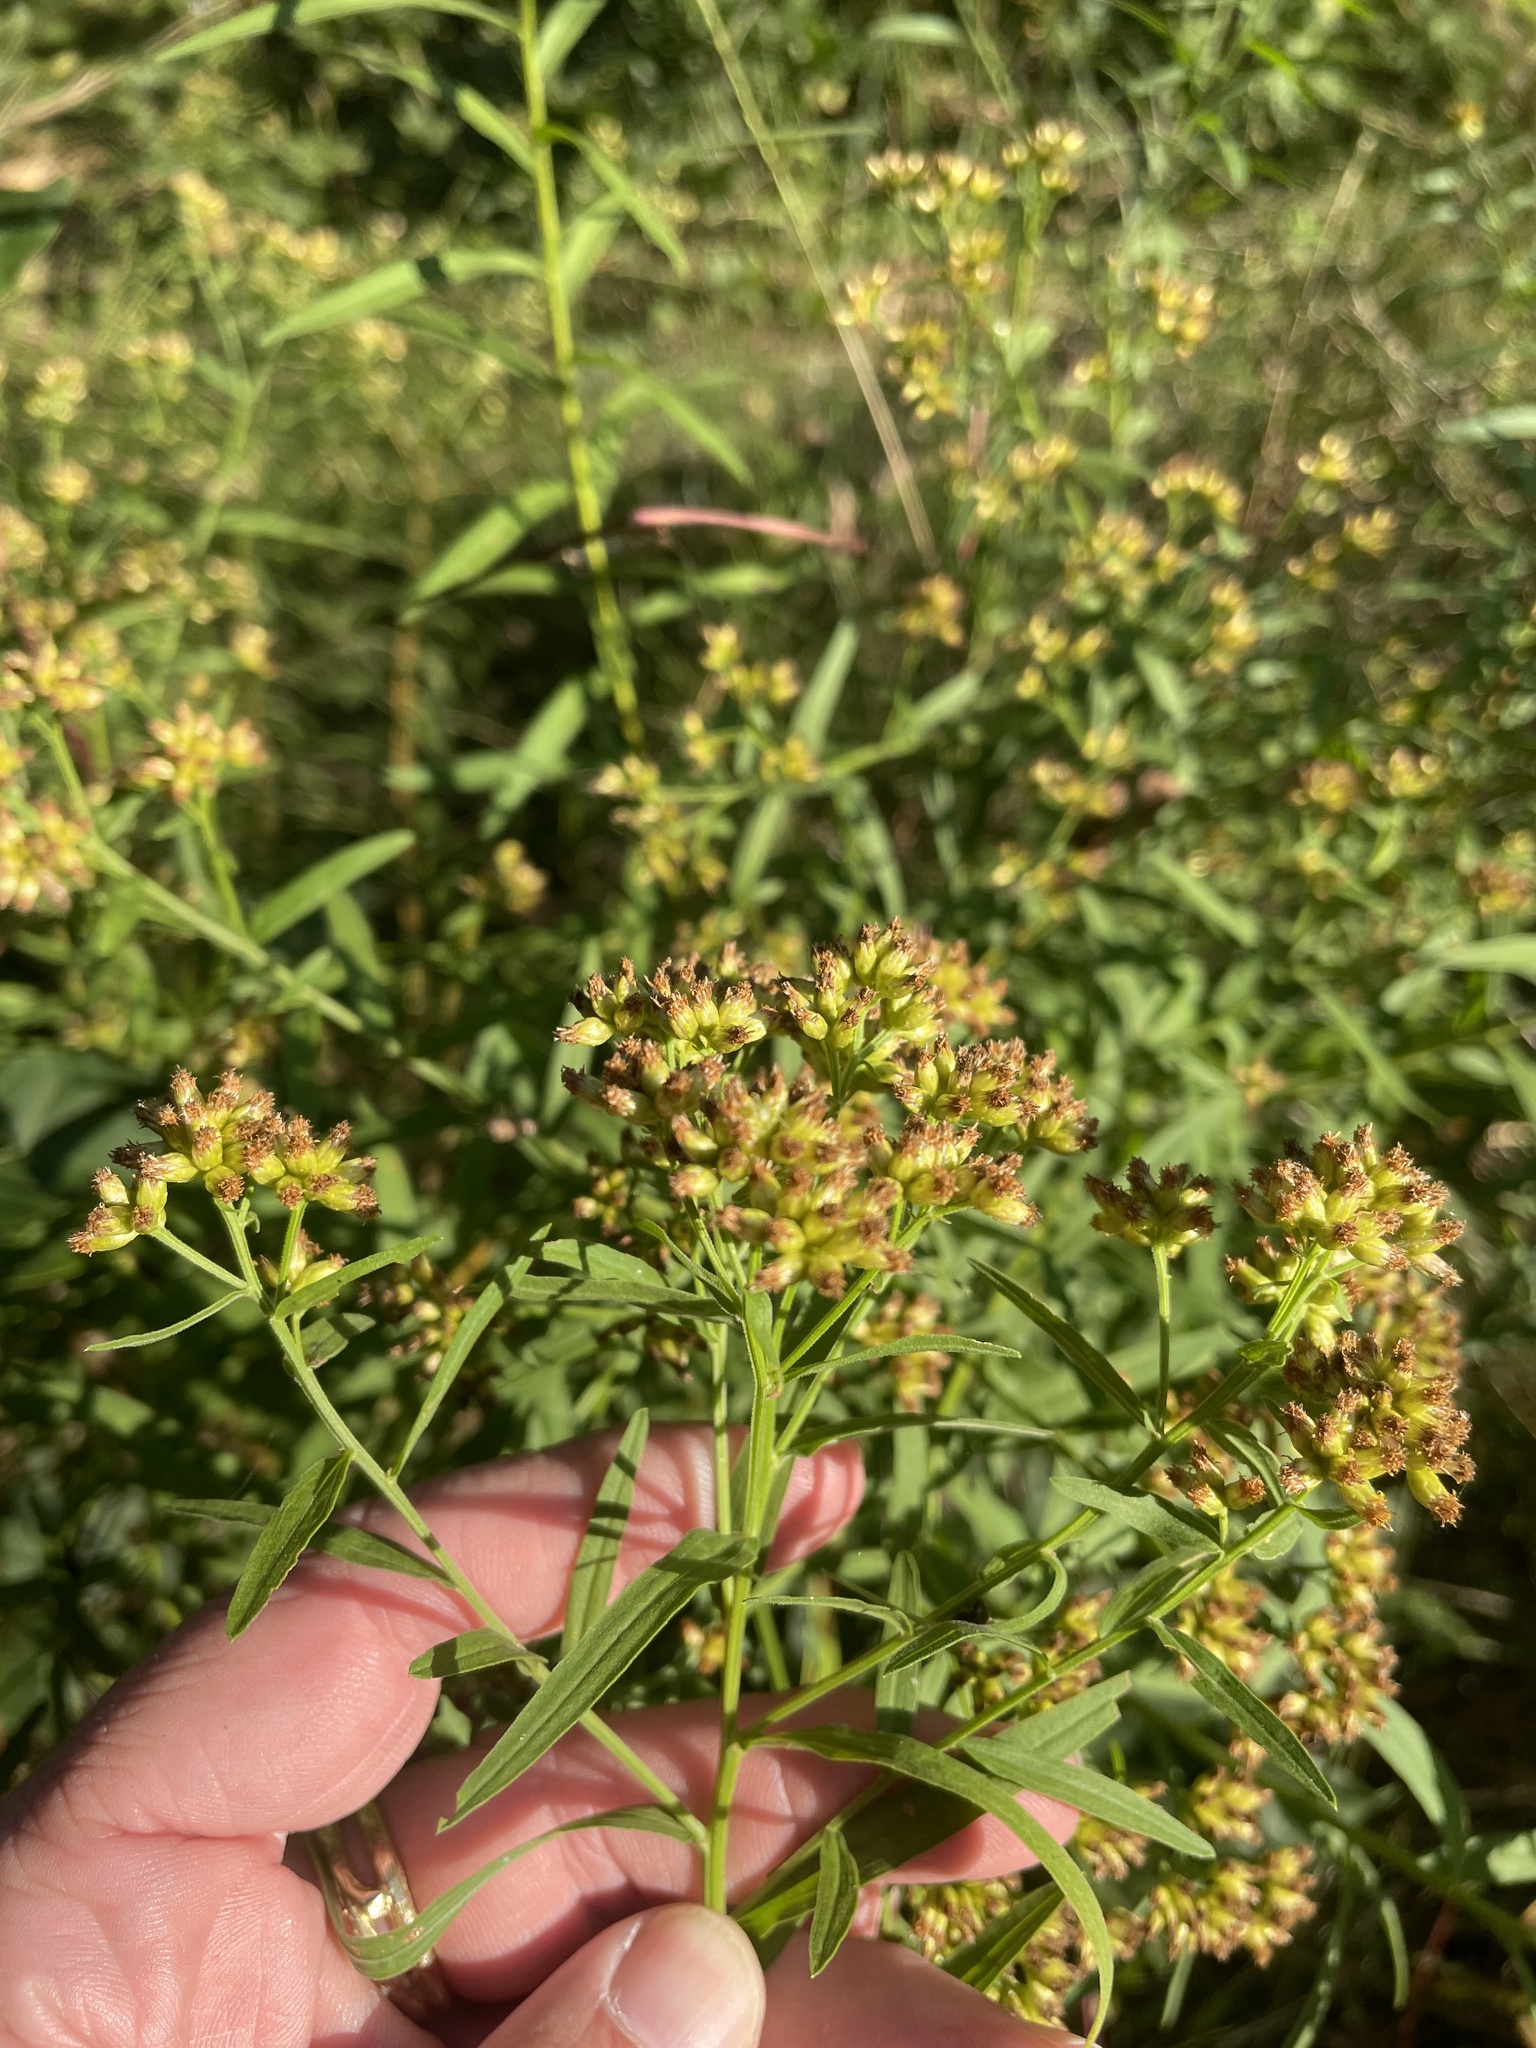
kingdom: Plantae
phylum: Tracheophyta
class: Magnoliopsida
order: Asterales
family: Asteraceae
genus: Euthamia
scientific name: Euthamia graminifolia
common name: Common goldentop
